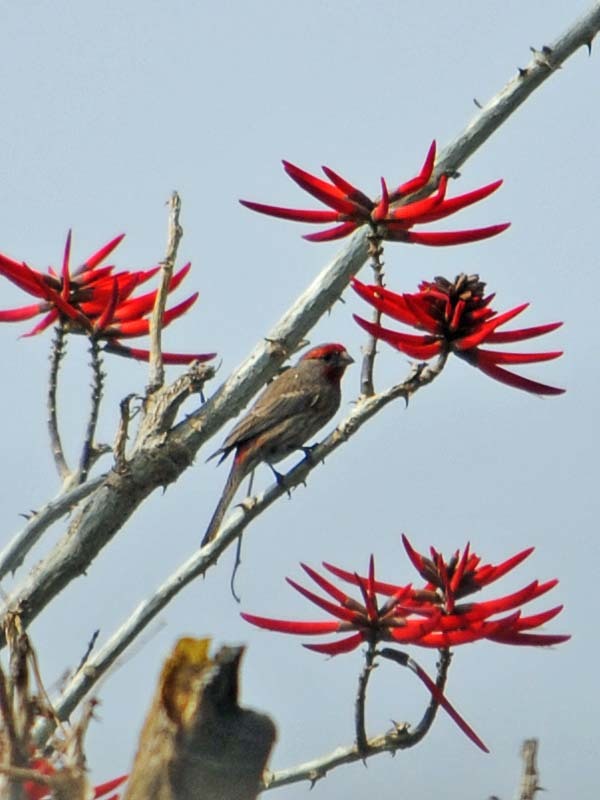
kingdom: Animalia
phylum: Chordata
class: Aves
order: Passeriformes
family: Fringillidae
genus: Haemorhous
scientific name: Haemorhous mexicanus
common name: House finch
